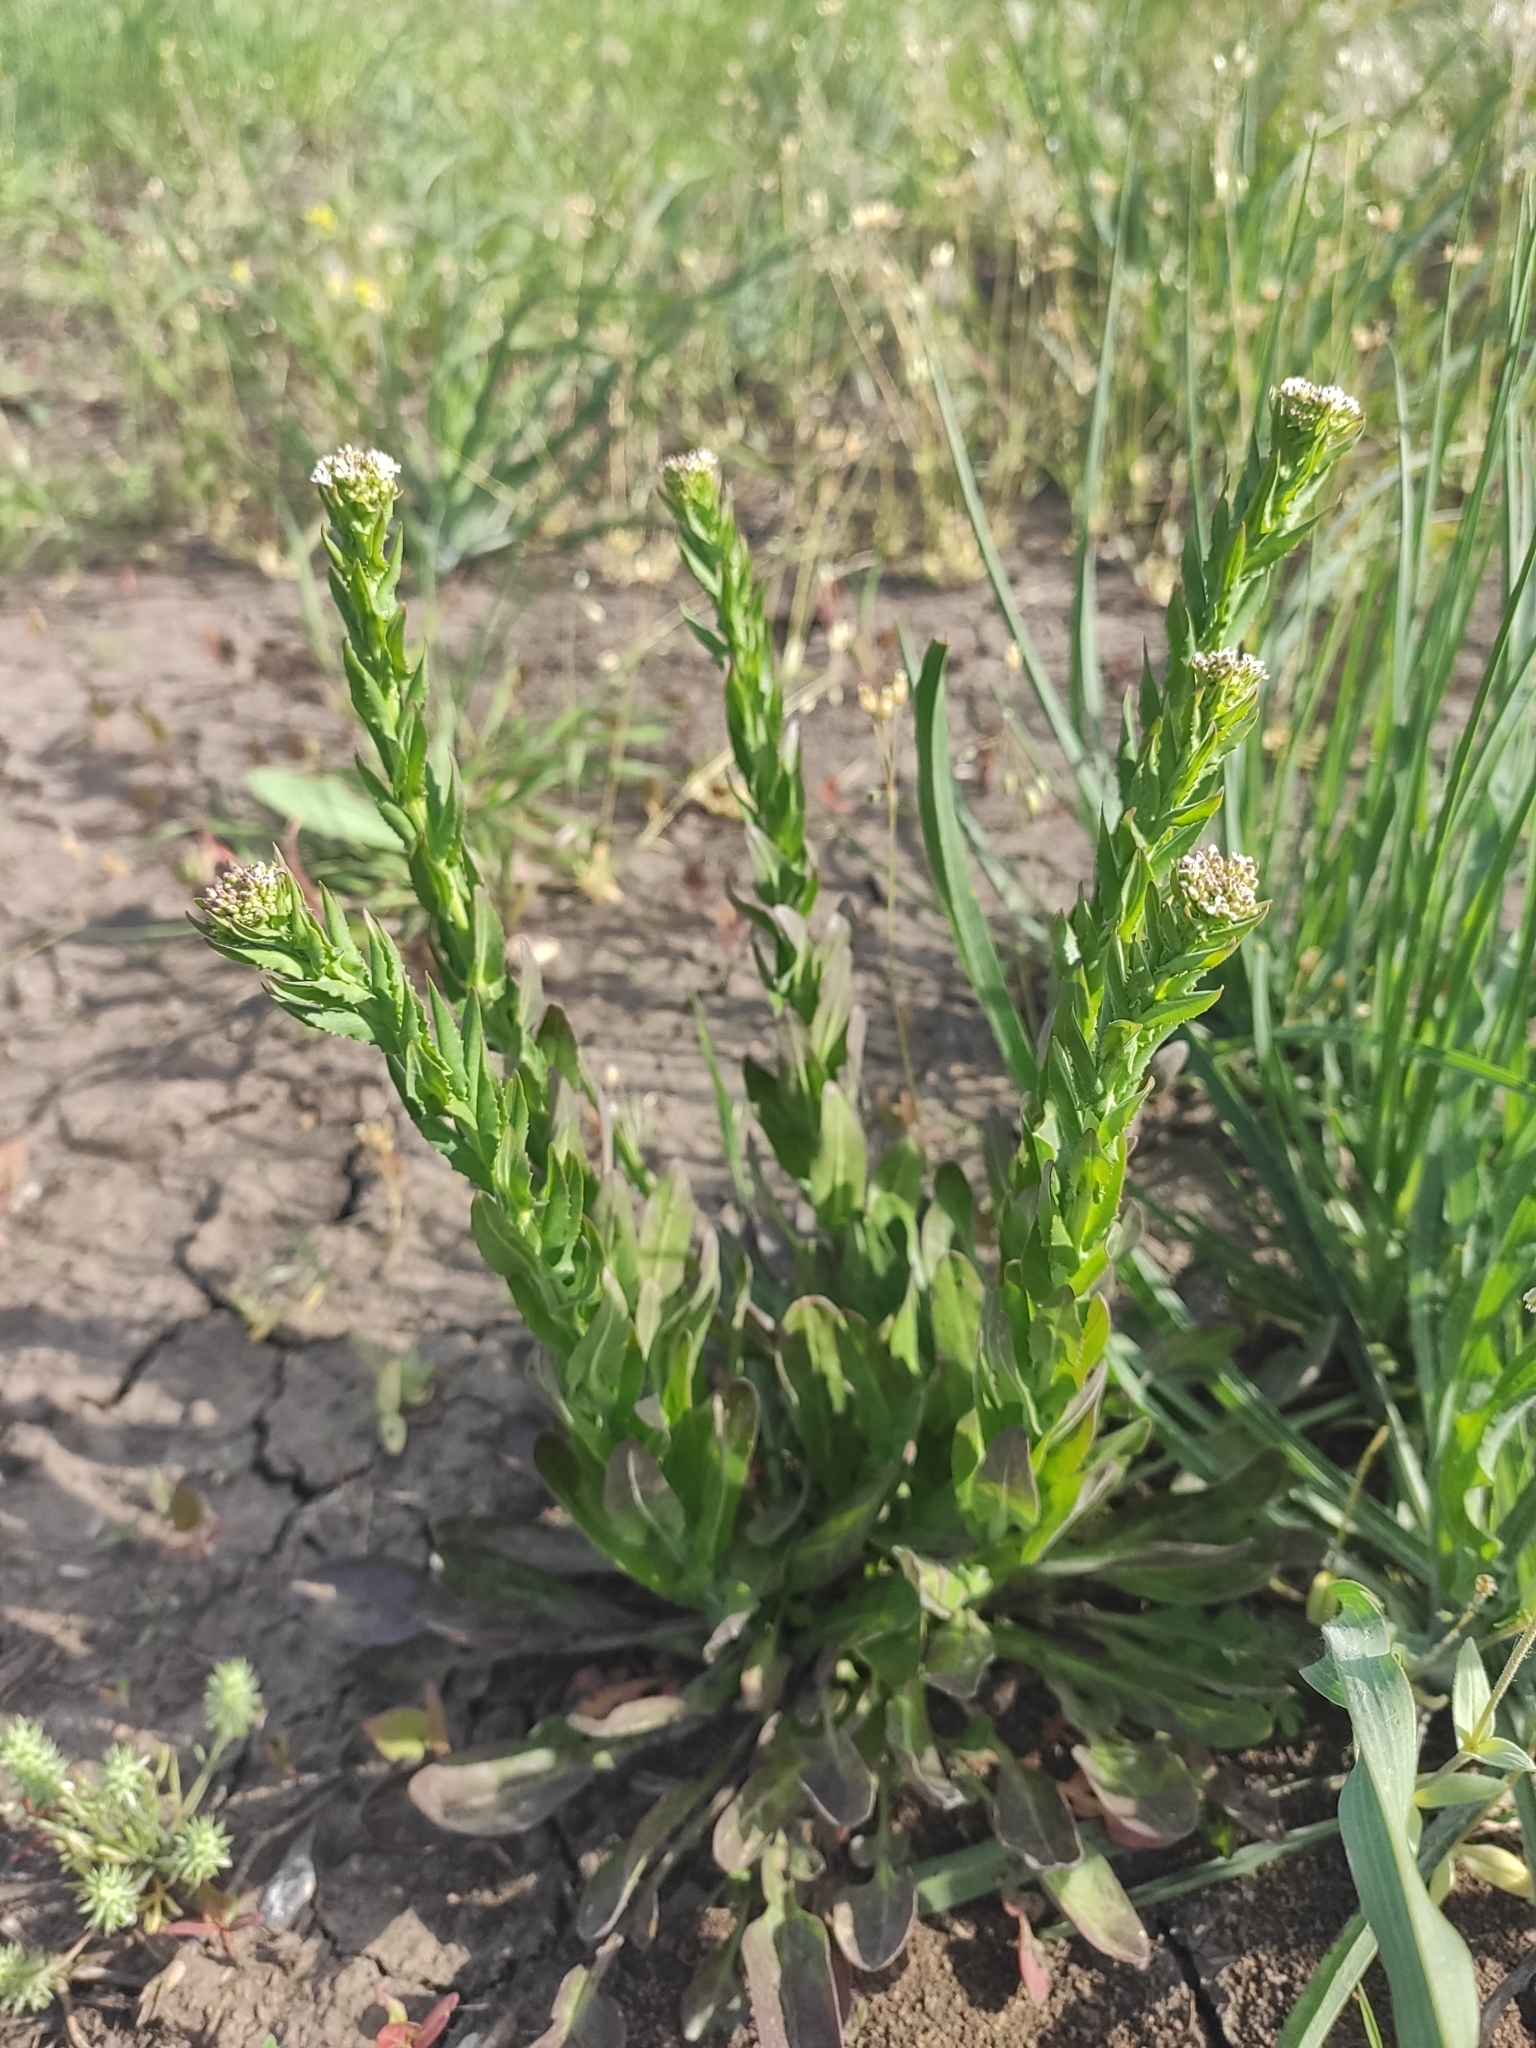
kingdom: Plantae
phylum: Tracheophyta
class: Magnoliopsida
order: Brassicales
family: Brassicaceae
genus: Lepidium
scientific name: Lepidium campestre
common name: Field pepperwort
